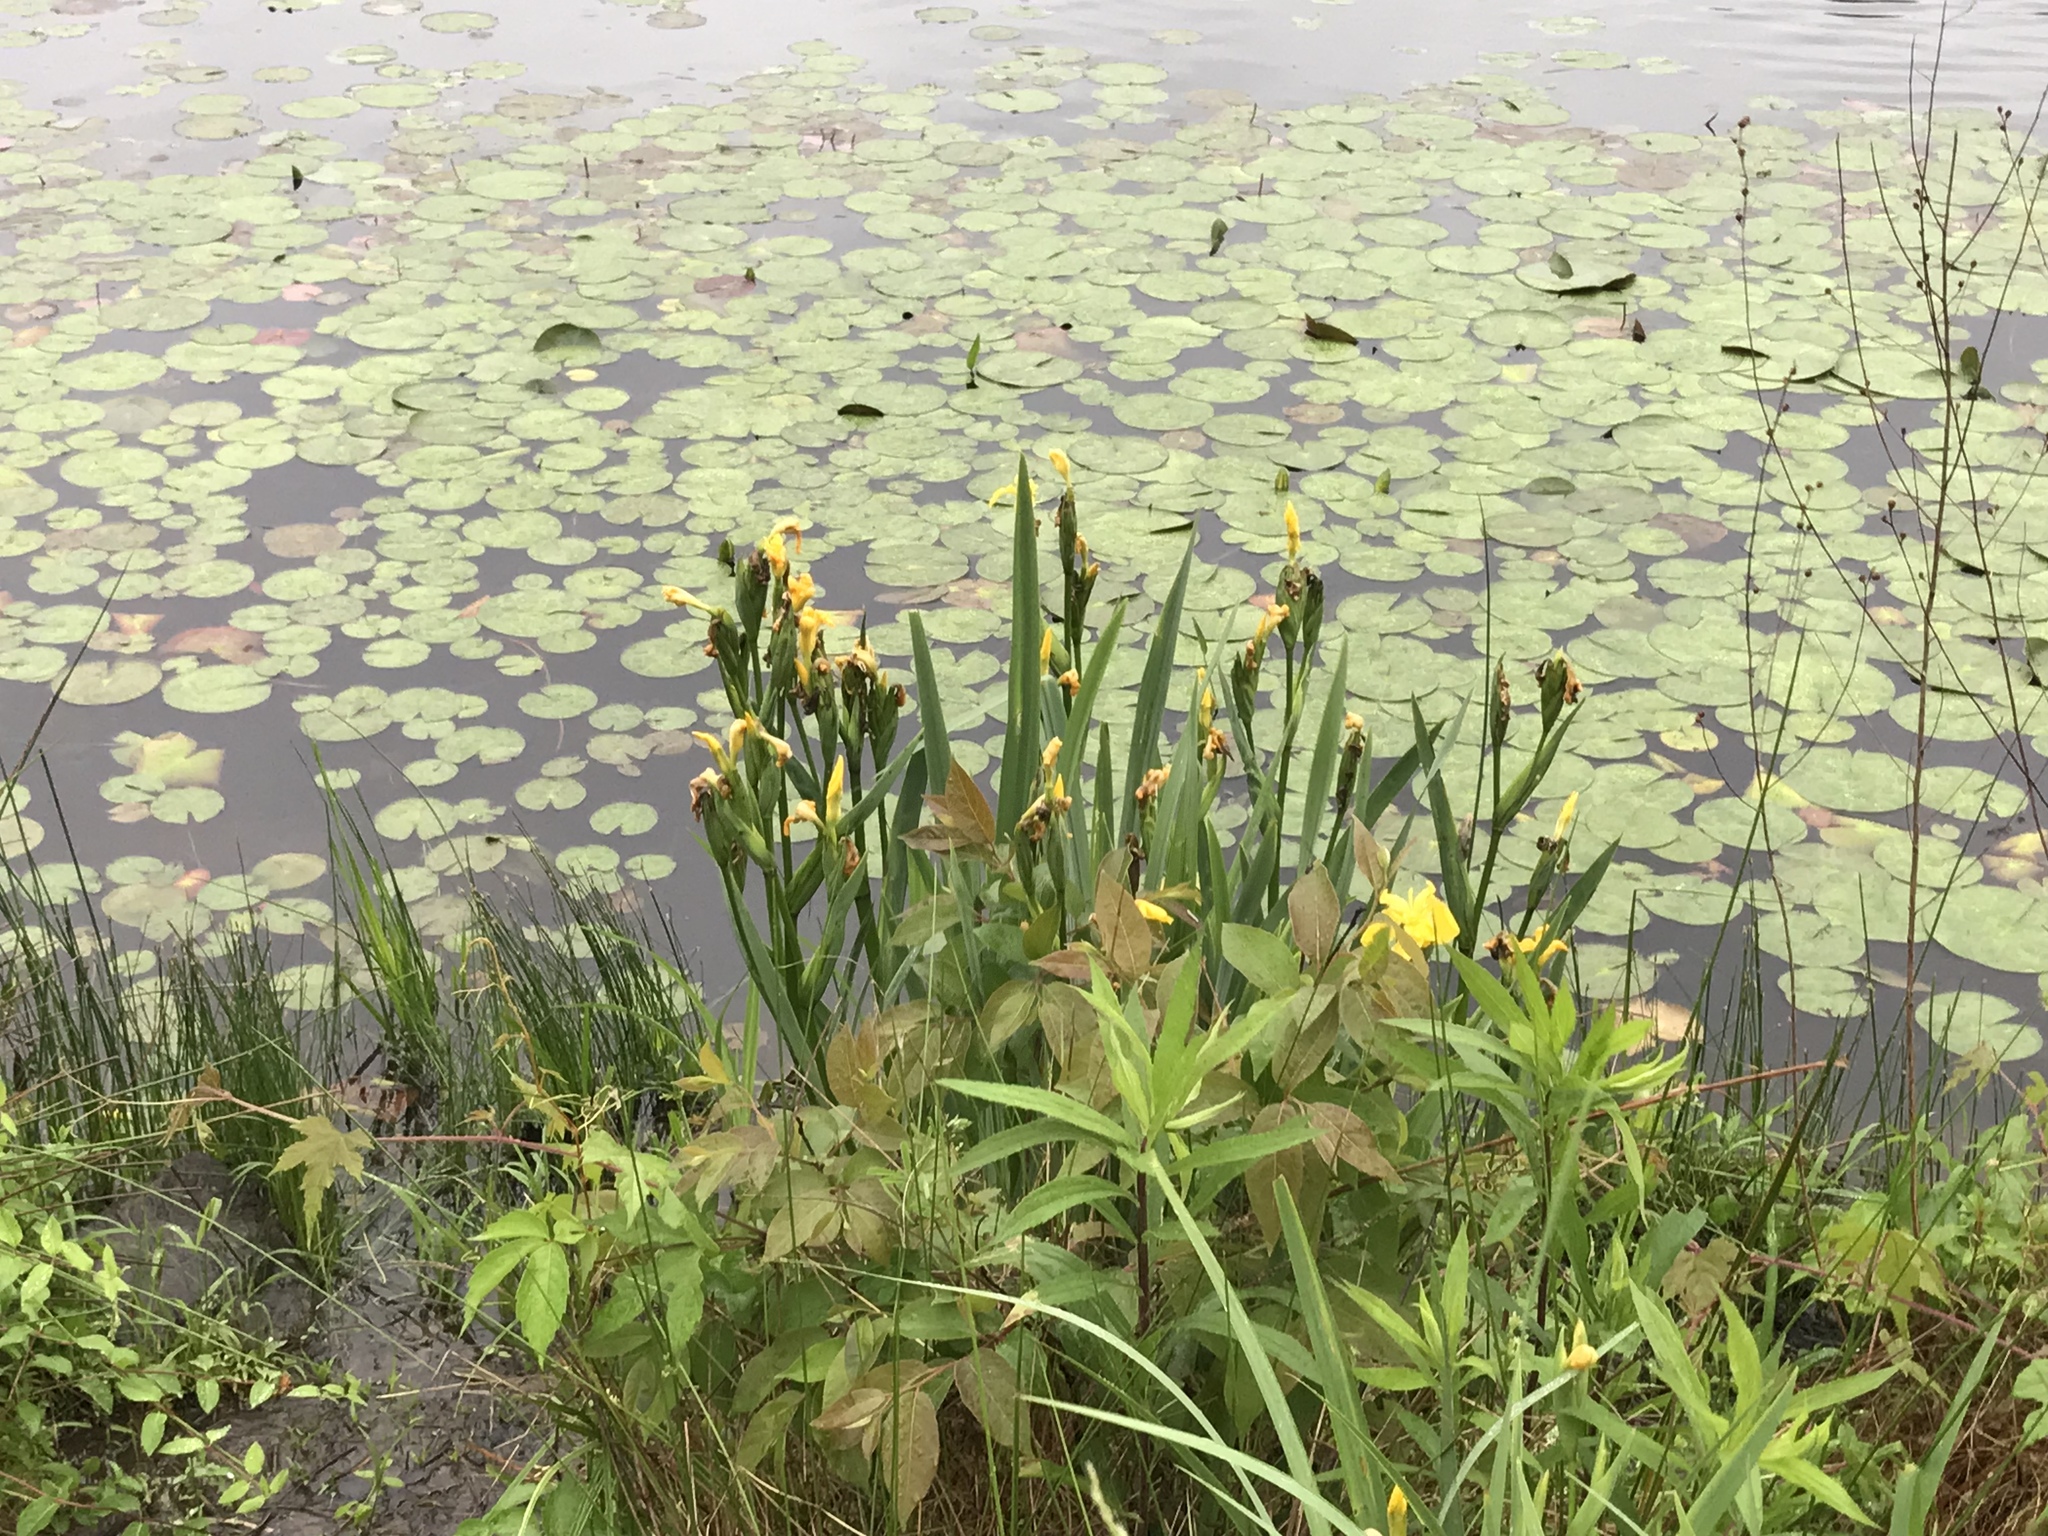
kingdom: Plantae
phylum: Tracheophyta
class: Liliopsida
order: Asparagales
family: Iridaceae
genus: Iris
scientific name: Iris pseudacorus
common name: Yellow flag
